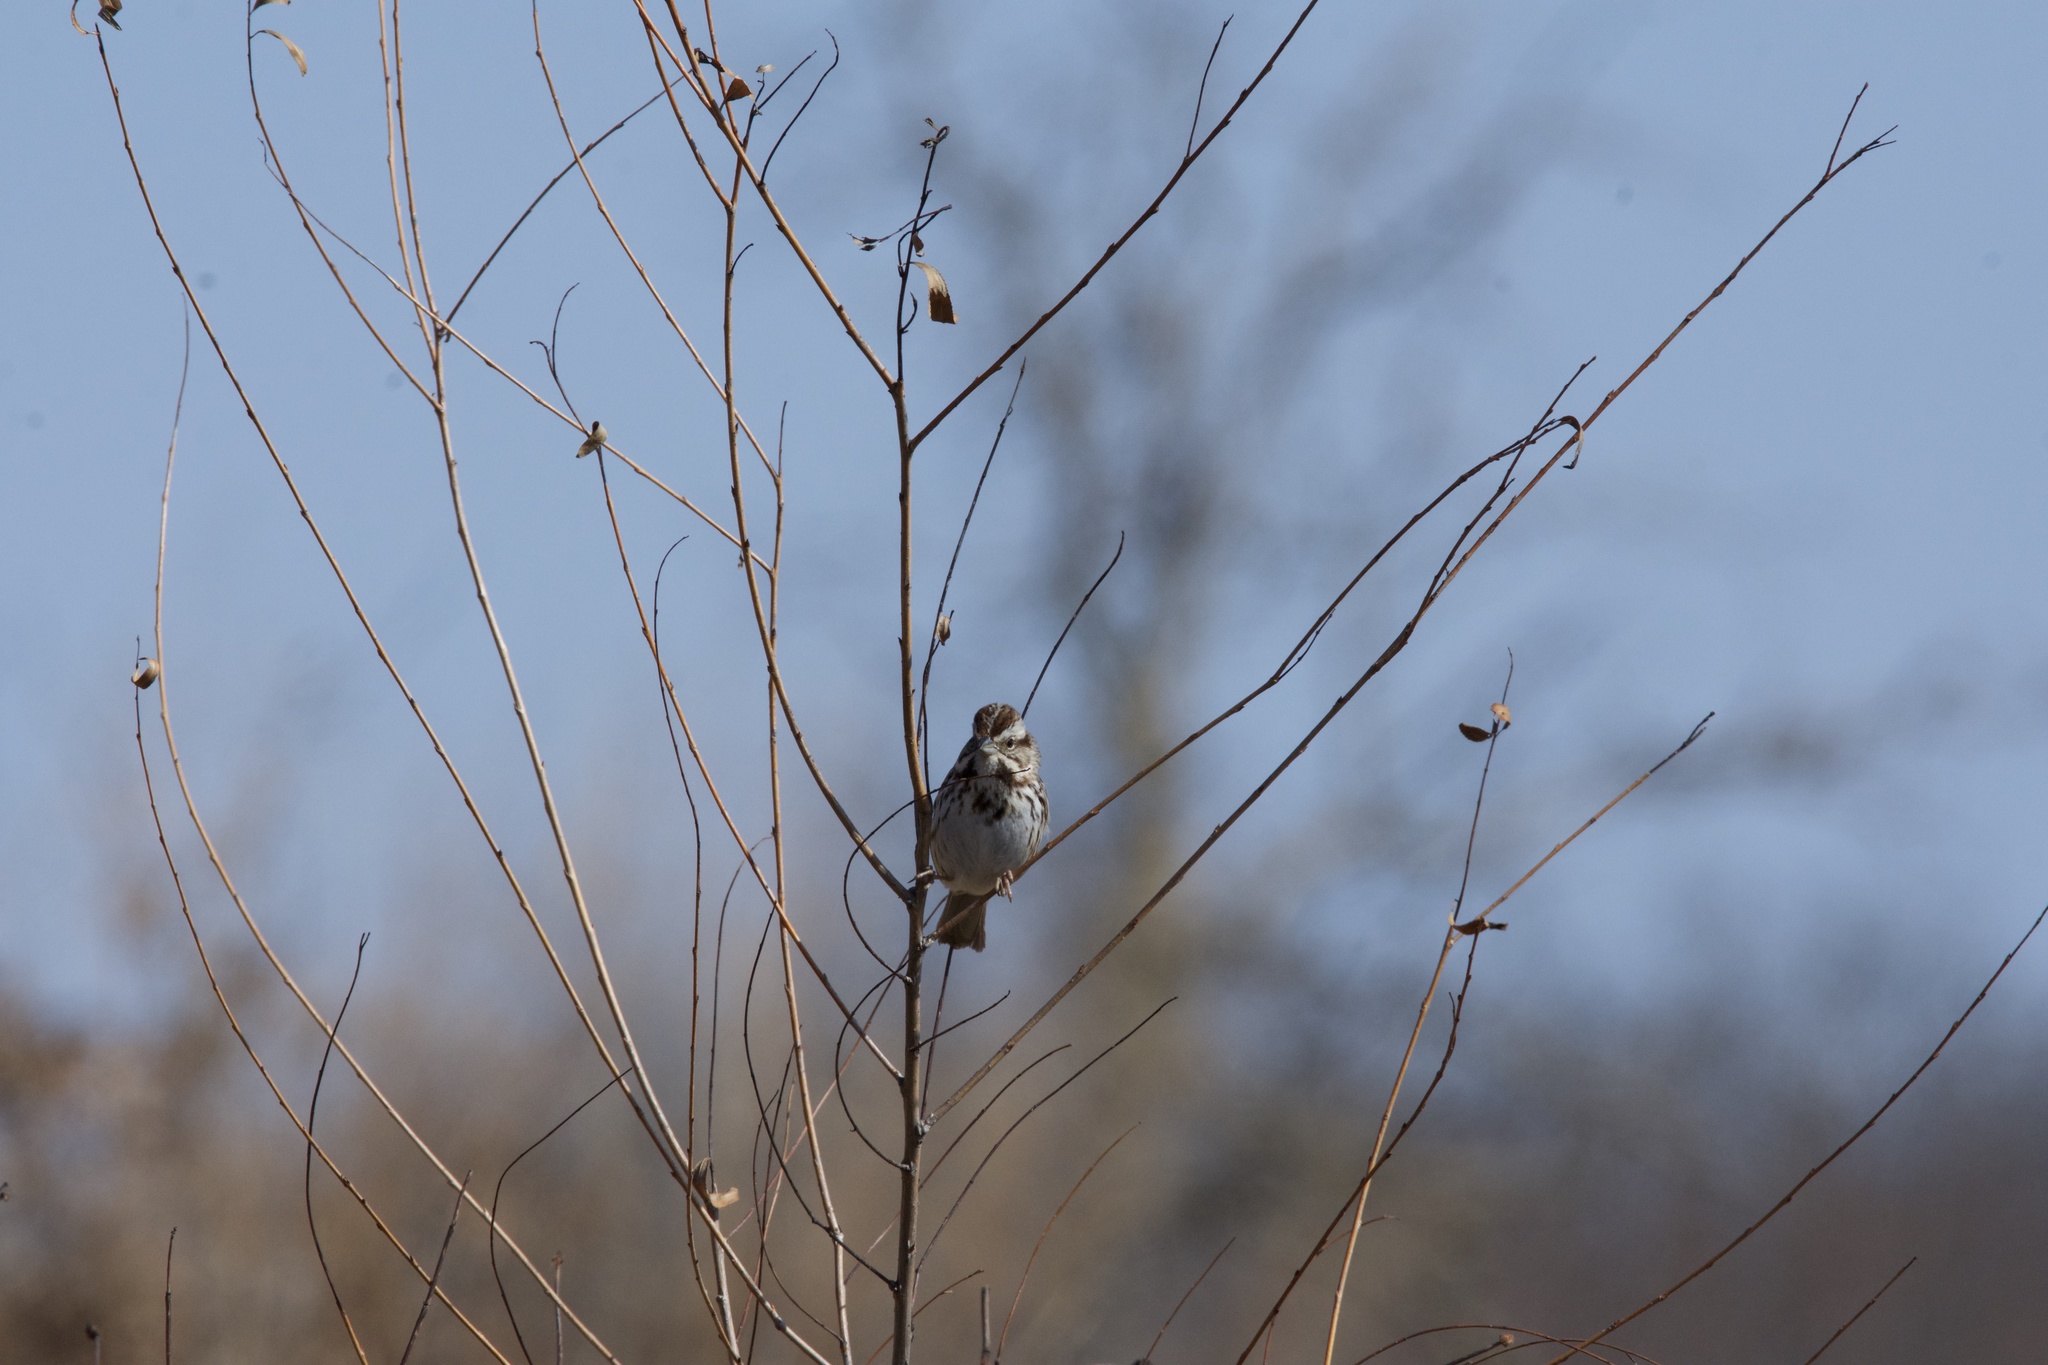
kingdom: Animalia
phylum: Chordata
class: Aves
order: Passeriformes
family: Passerellidae
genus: Melospiza
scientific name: Melospiza melodia
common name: Song sparrow
